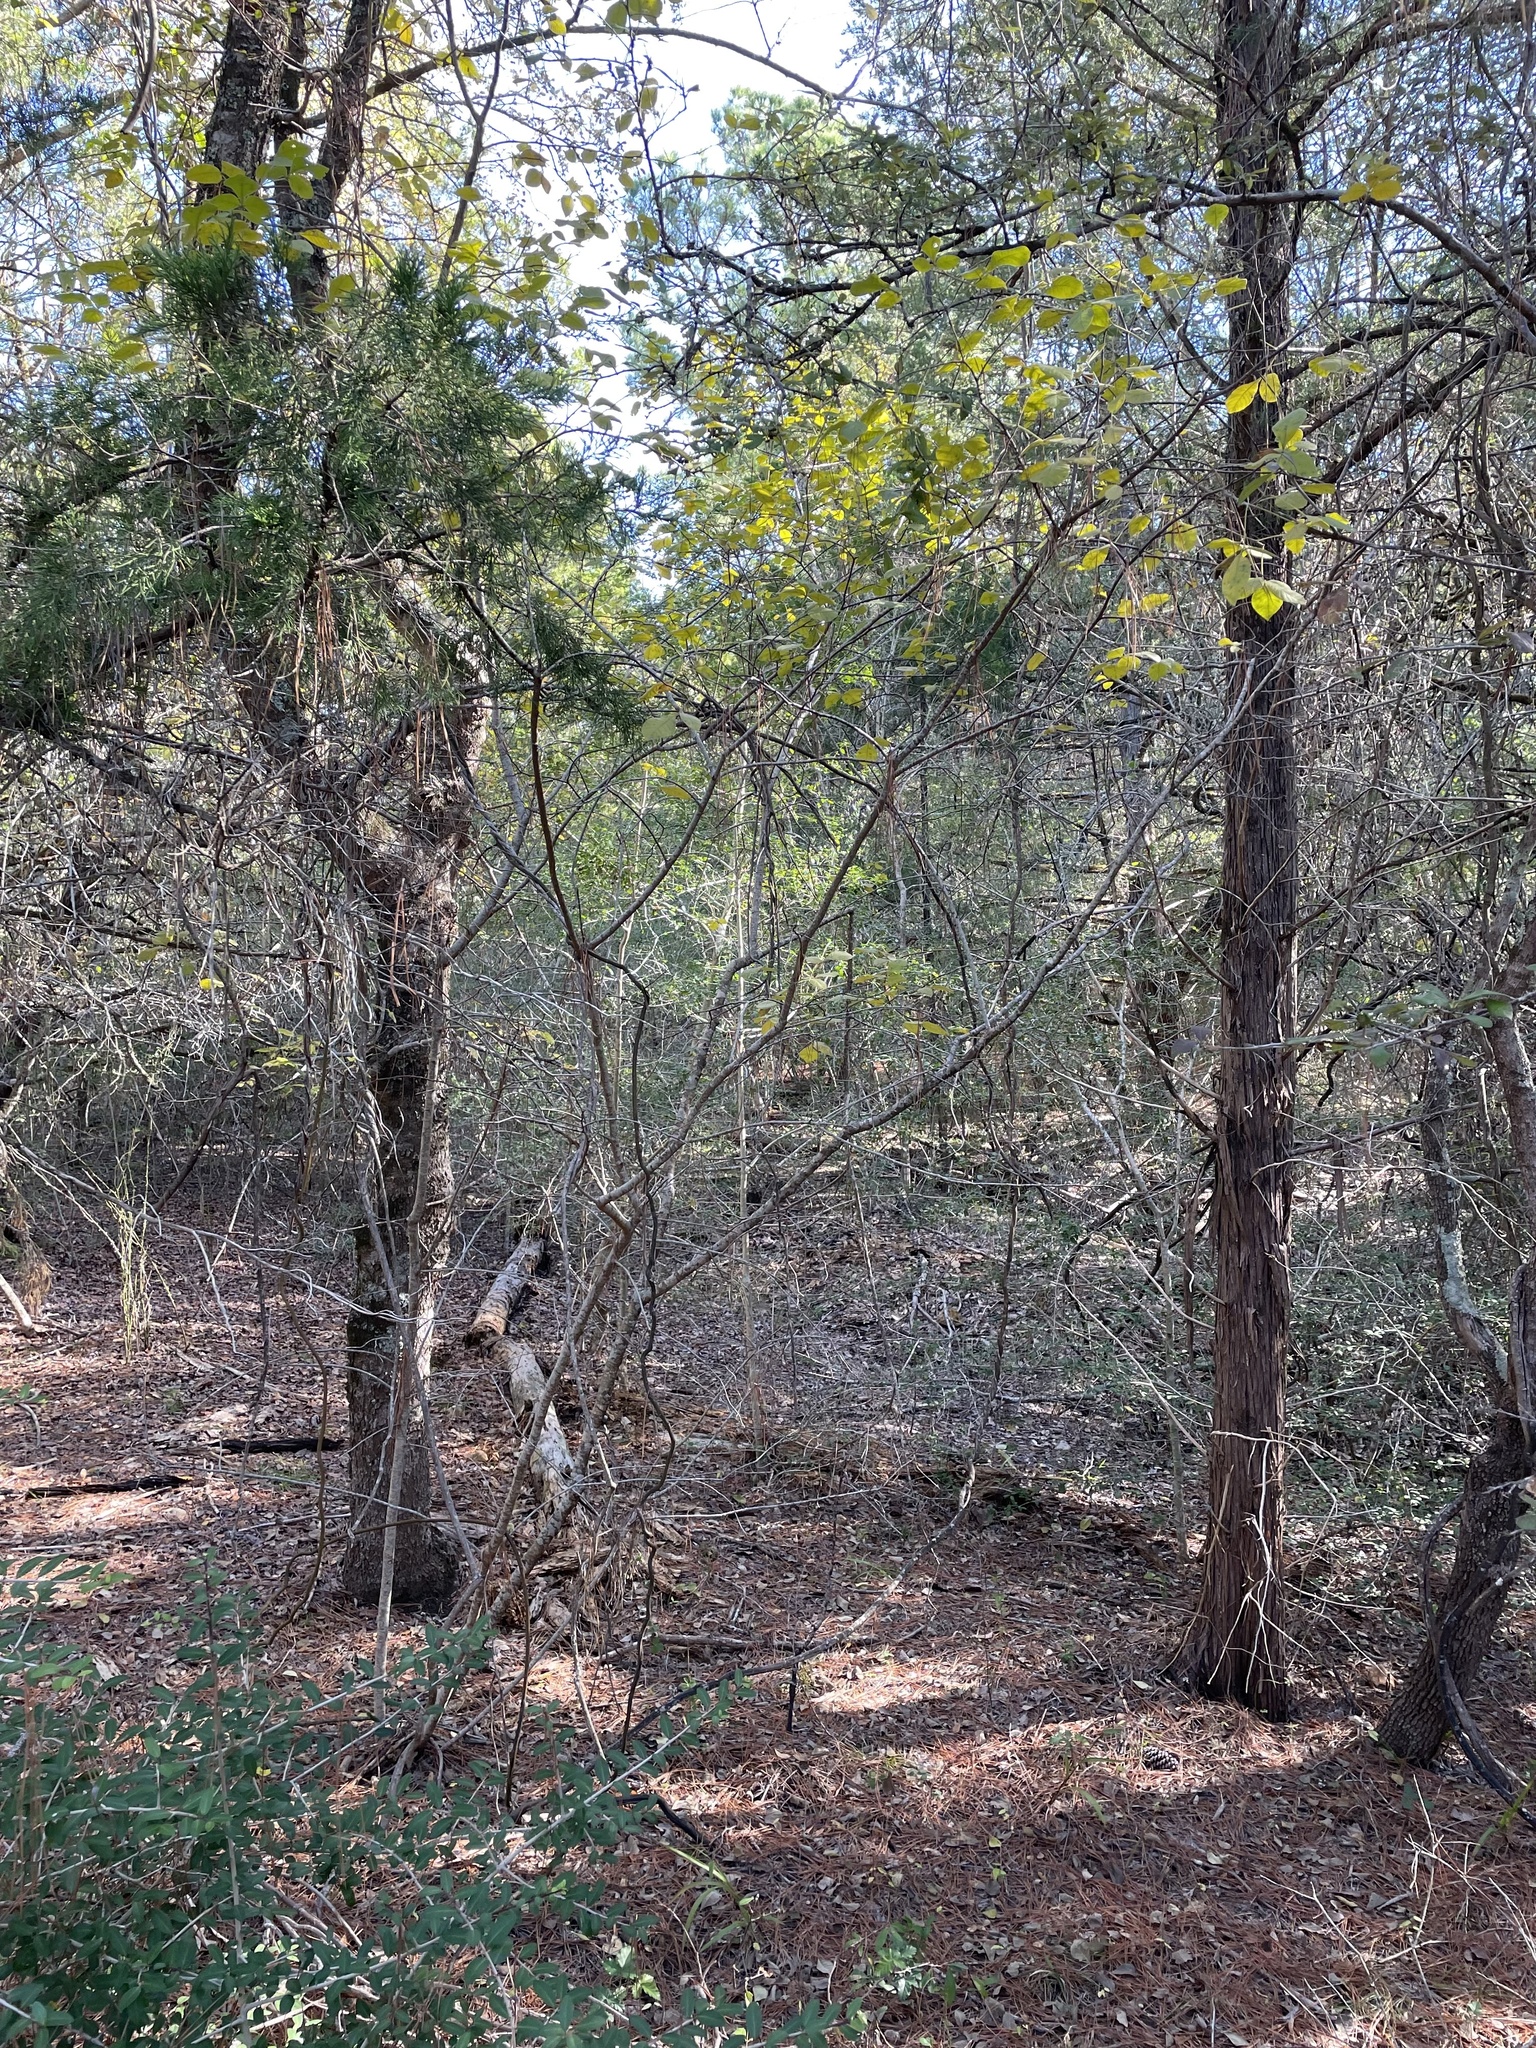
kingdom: Plantae
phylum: Tracheophyta
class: Magnoliopsida
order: Sapindales
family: Rutaceae
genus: Ptelea
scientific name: Ptelea trifoliata
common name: Common hop-tree
